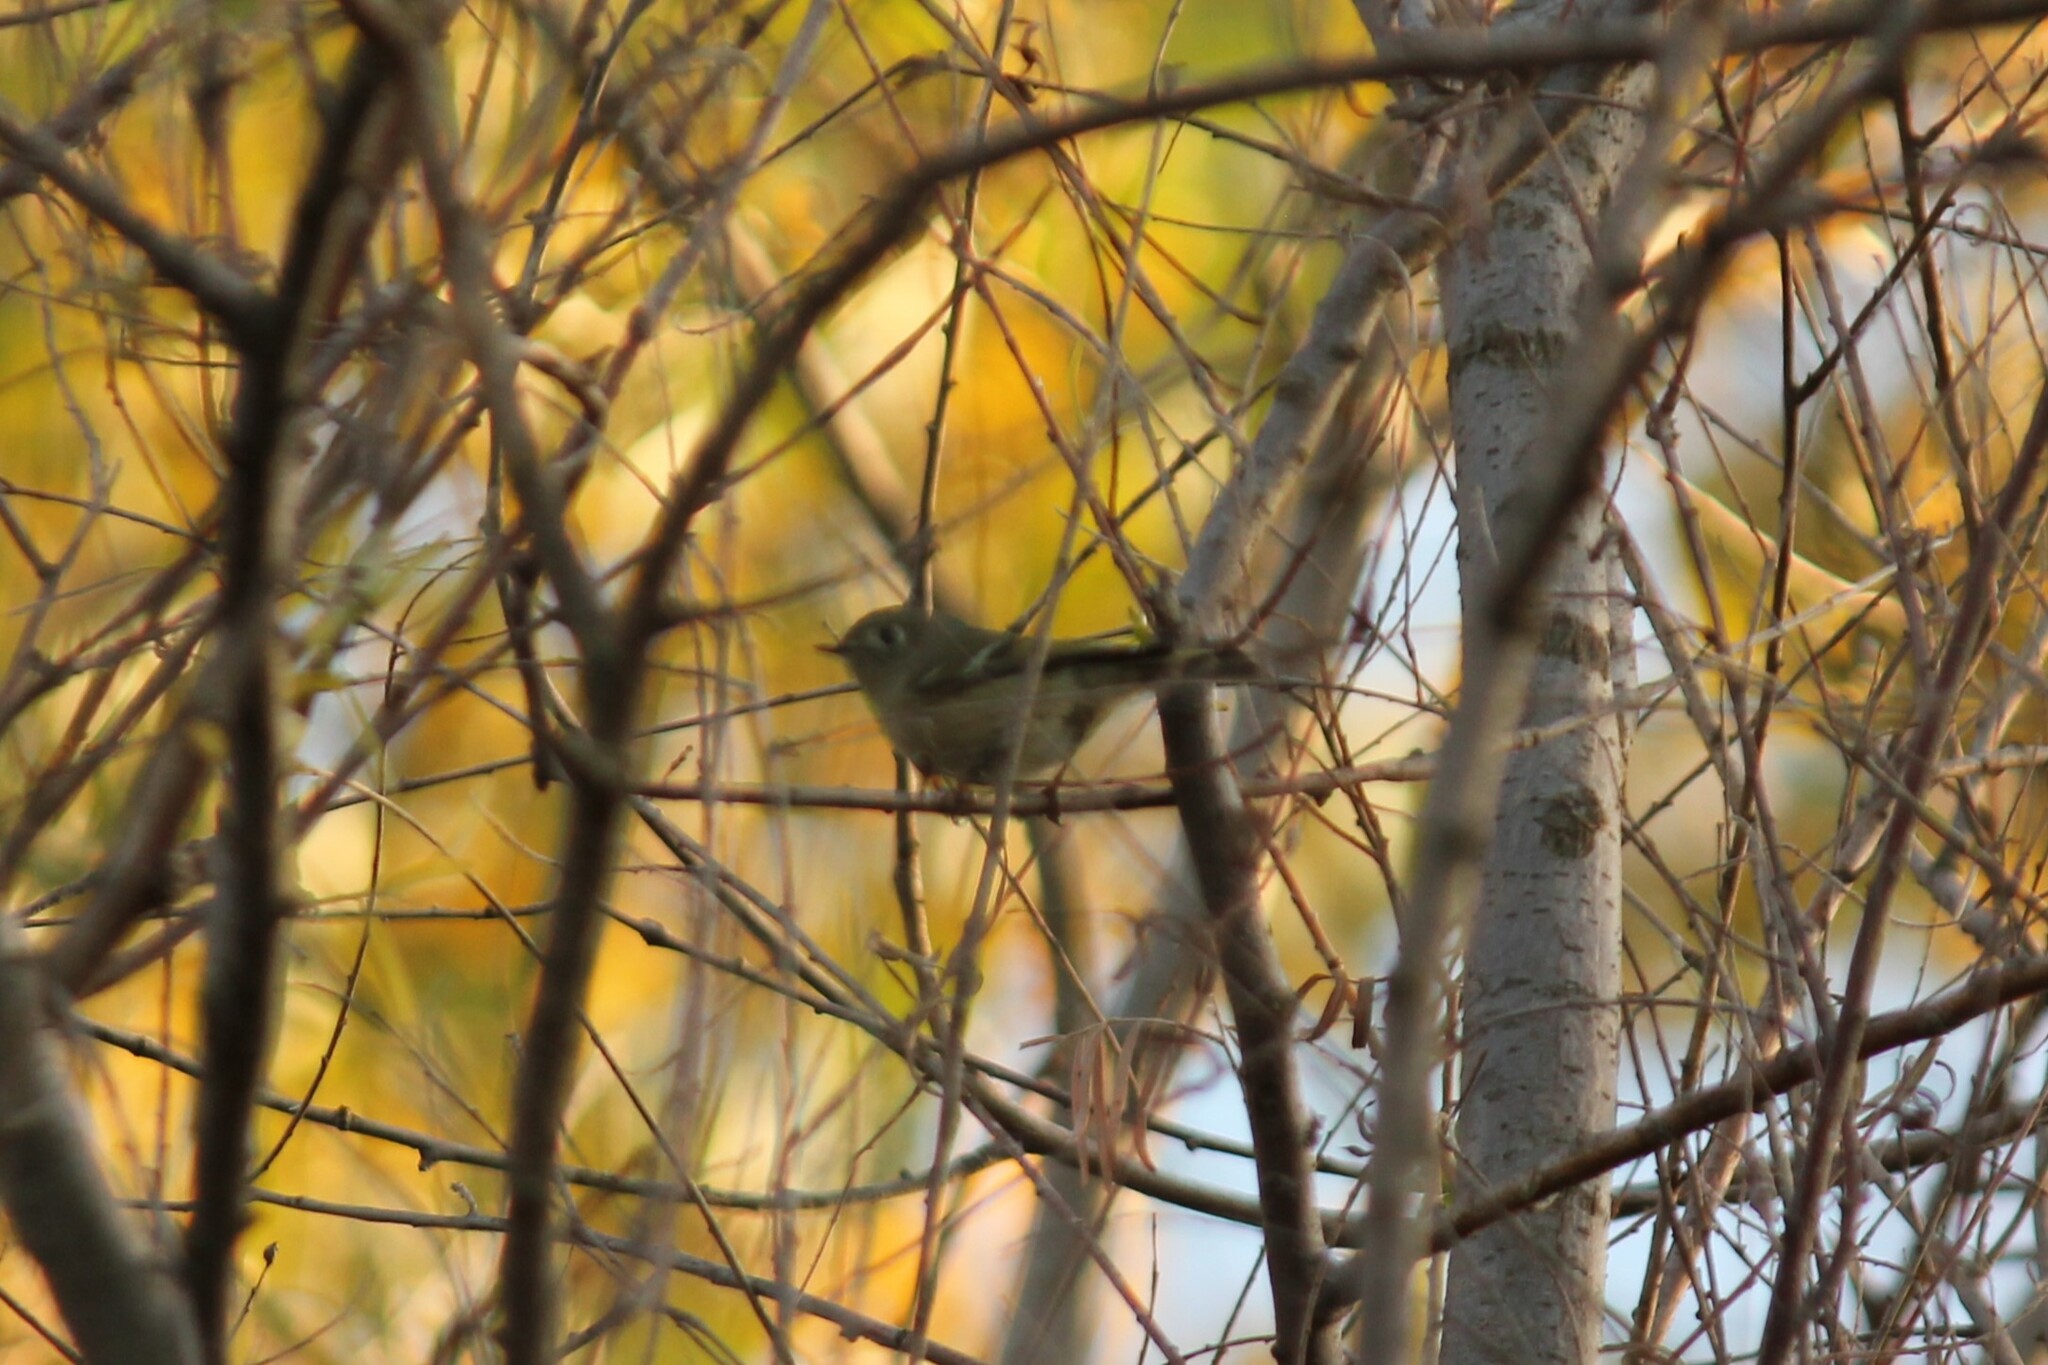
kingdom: Animalia
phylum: Chordata
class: Aves
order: Passeriformes
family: Regulidae
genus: Regulus
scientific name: Regulus calendula
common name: Ruby-crowned kinglet
